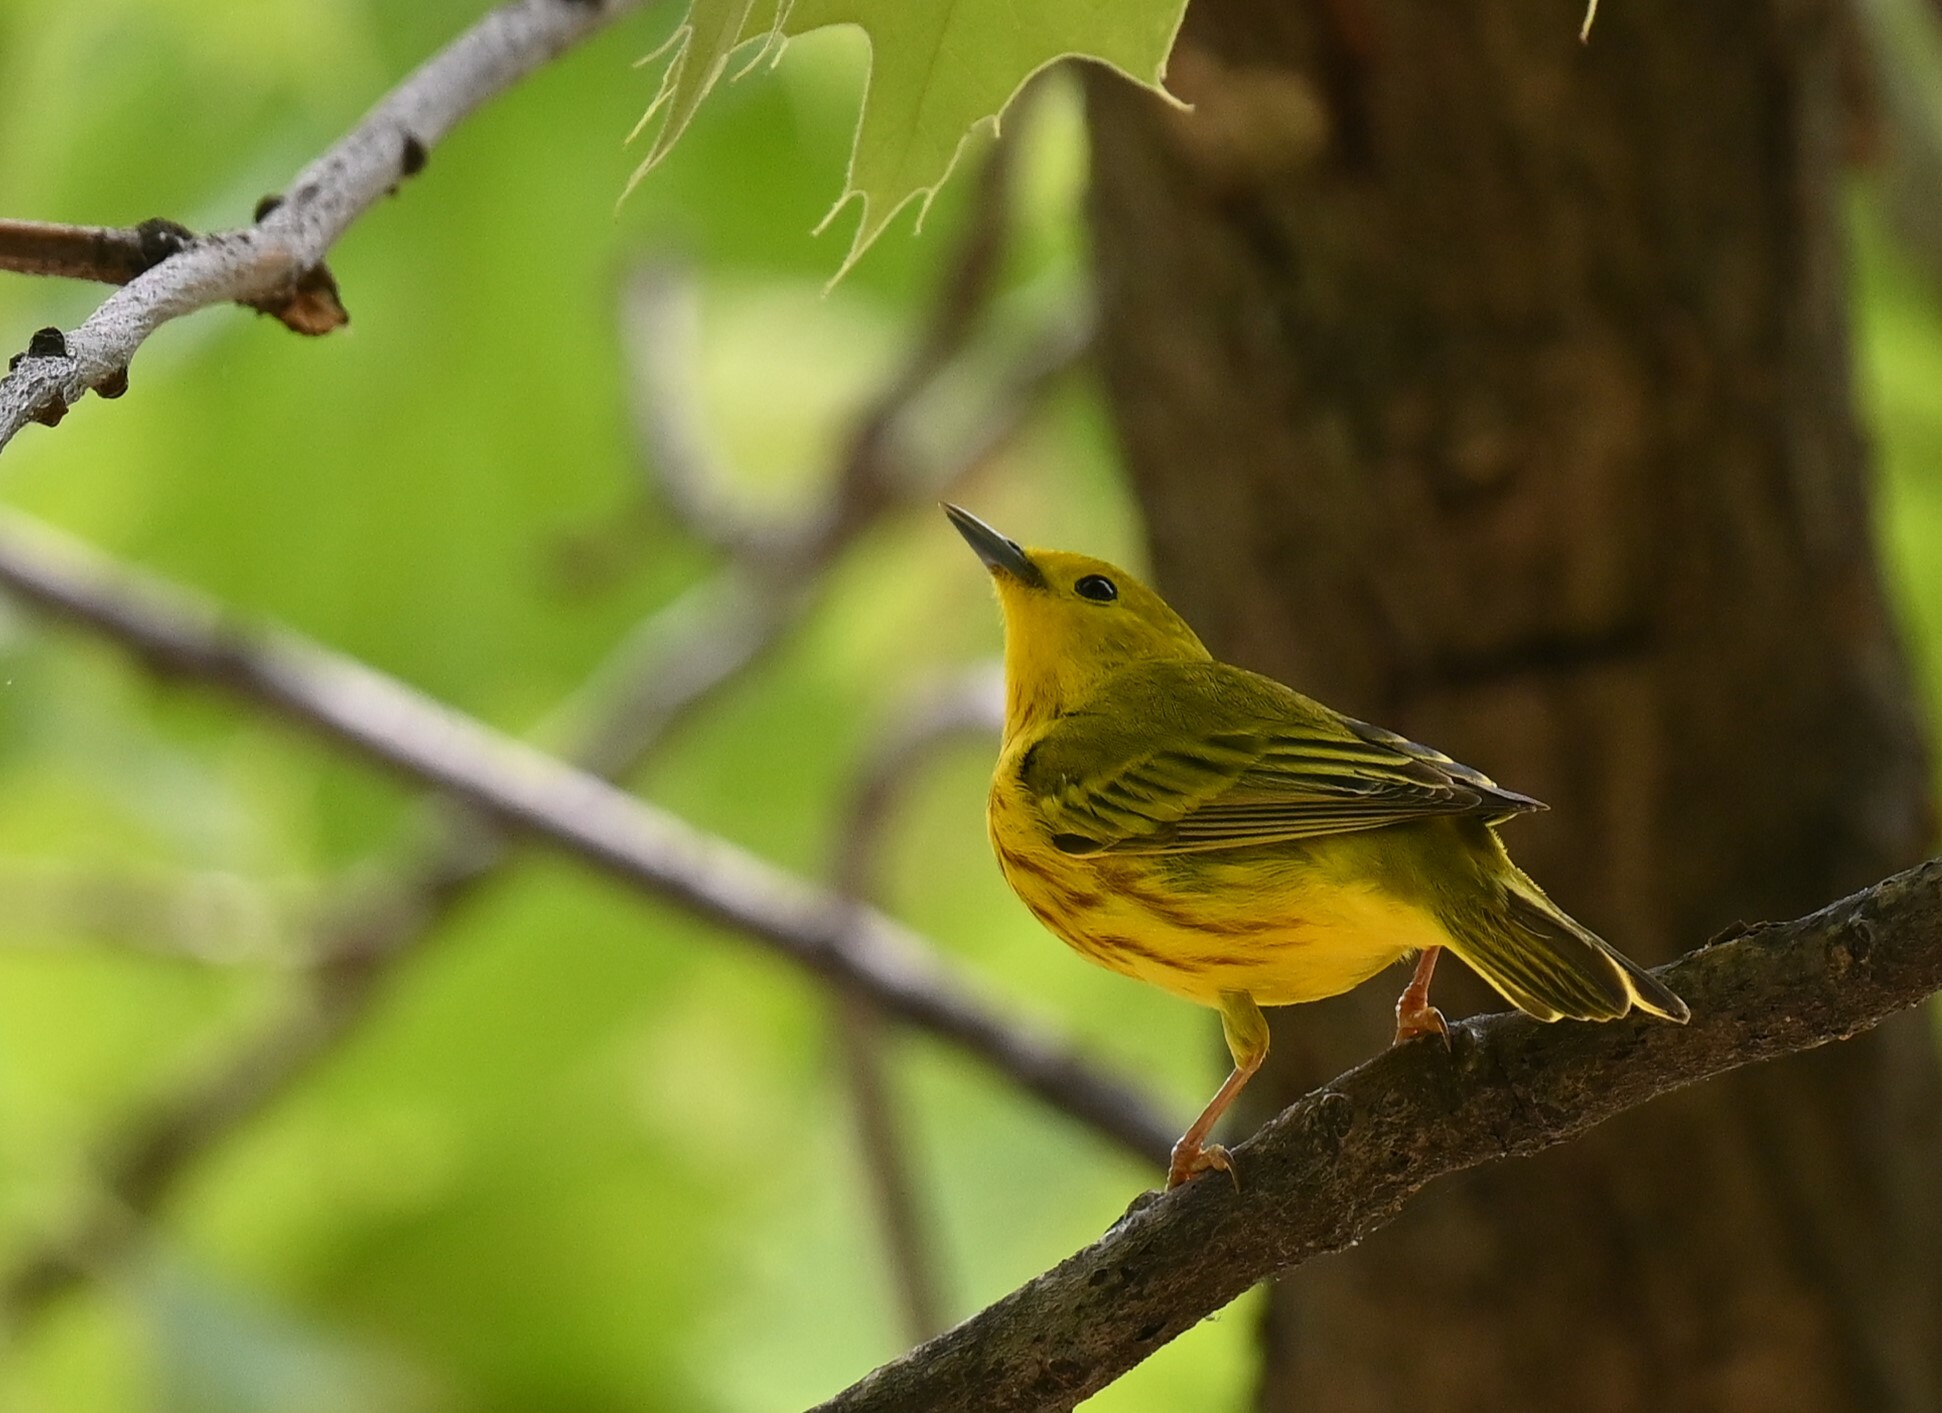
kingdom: Animalia
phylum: Chordata
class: Aves
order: Passeriformes
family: Parulidae
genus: Setophaga
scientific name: Setophaga petechia
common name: Yellow warbler
